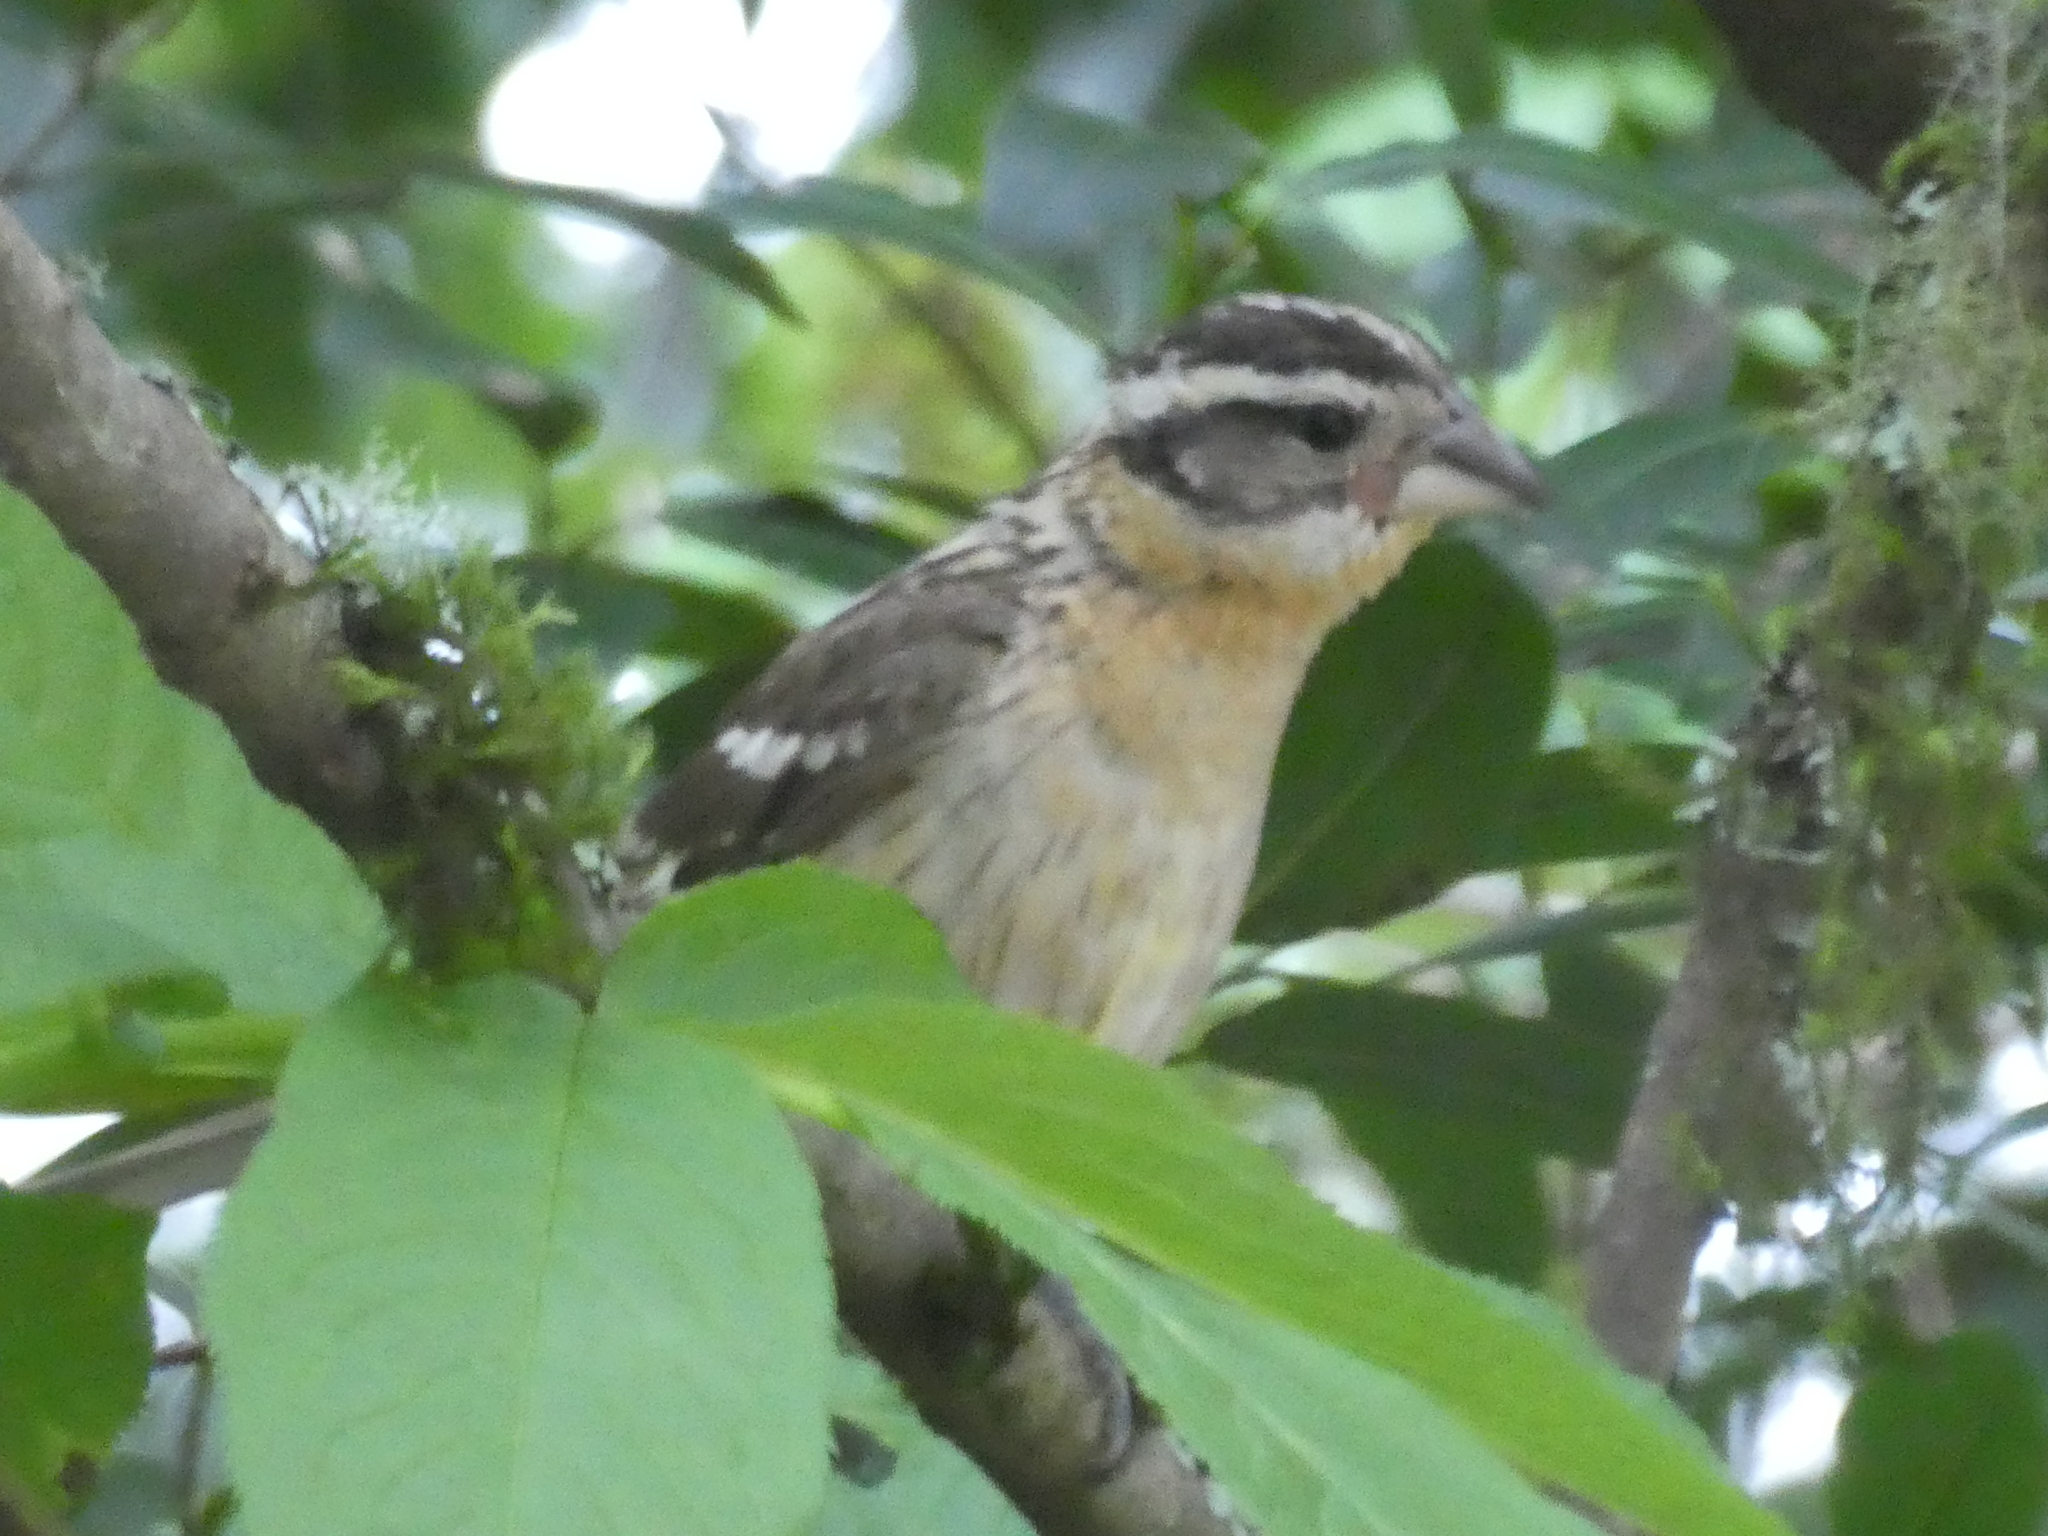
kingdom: Animalia
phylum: Chordata
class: Aves
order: Passeriformes
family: Cardinalidae
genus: Pheucticus
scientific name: Pheucticus melanocephalus
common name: Black-headed grosbeak
